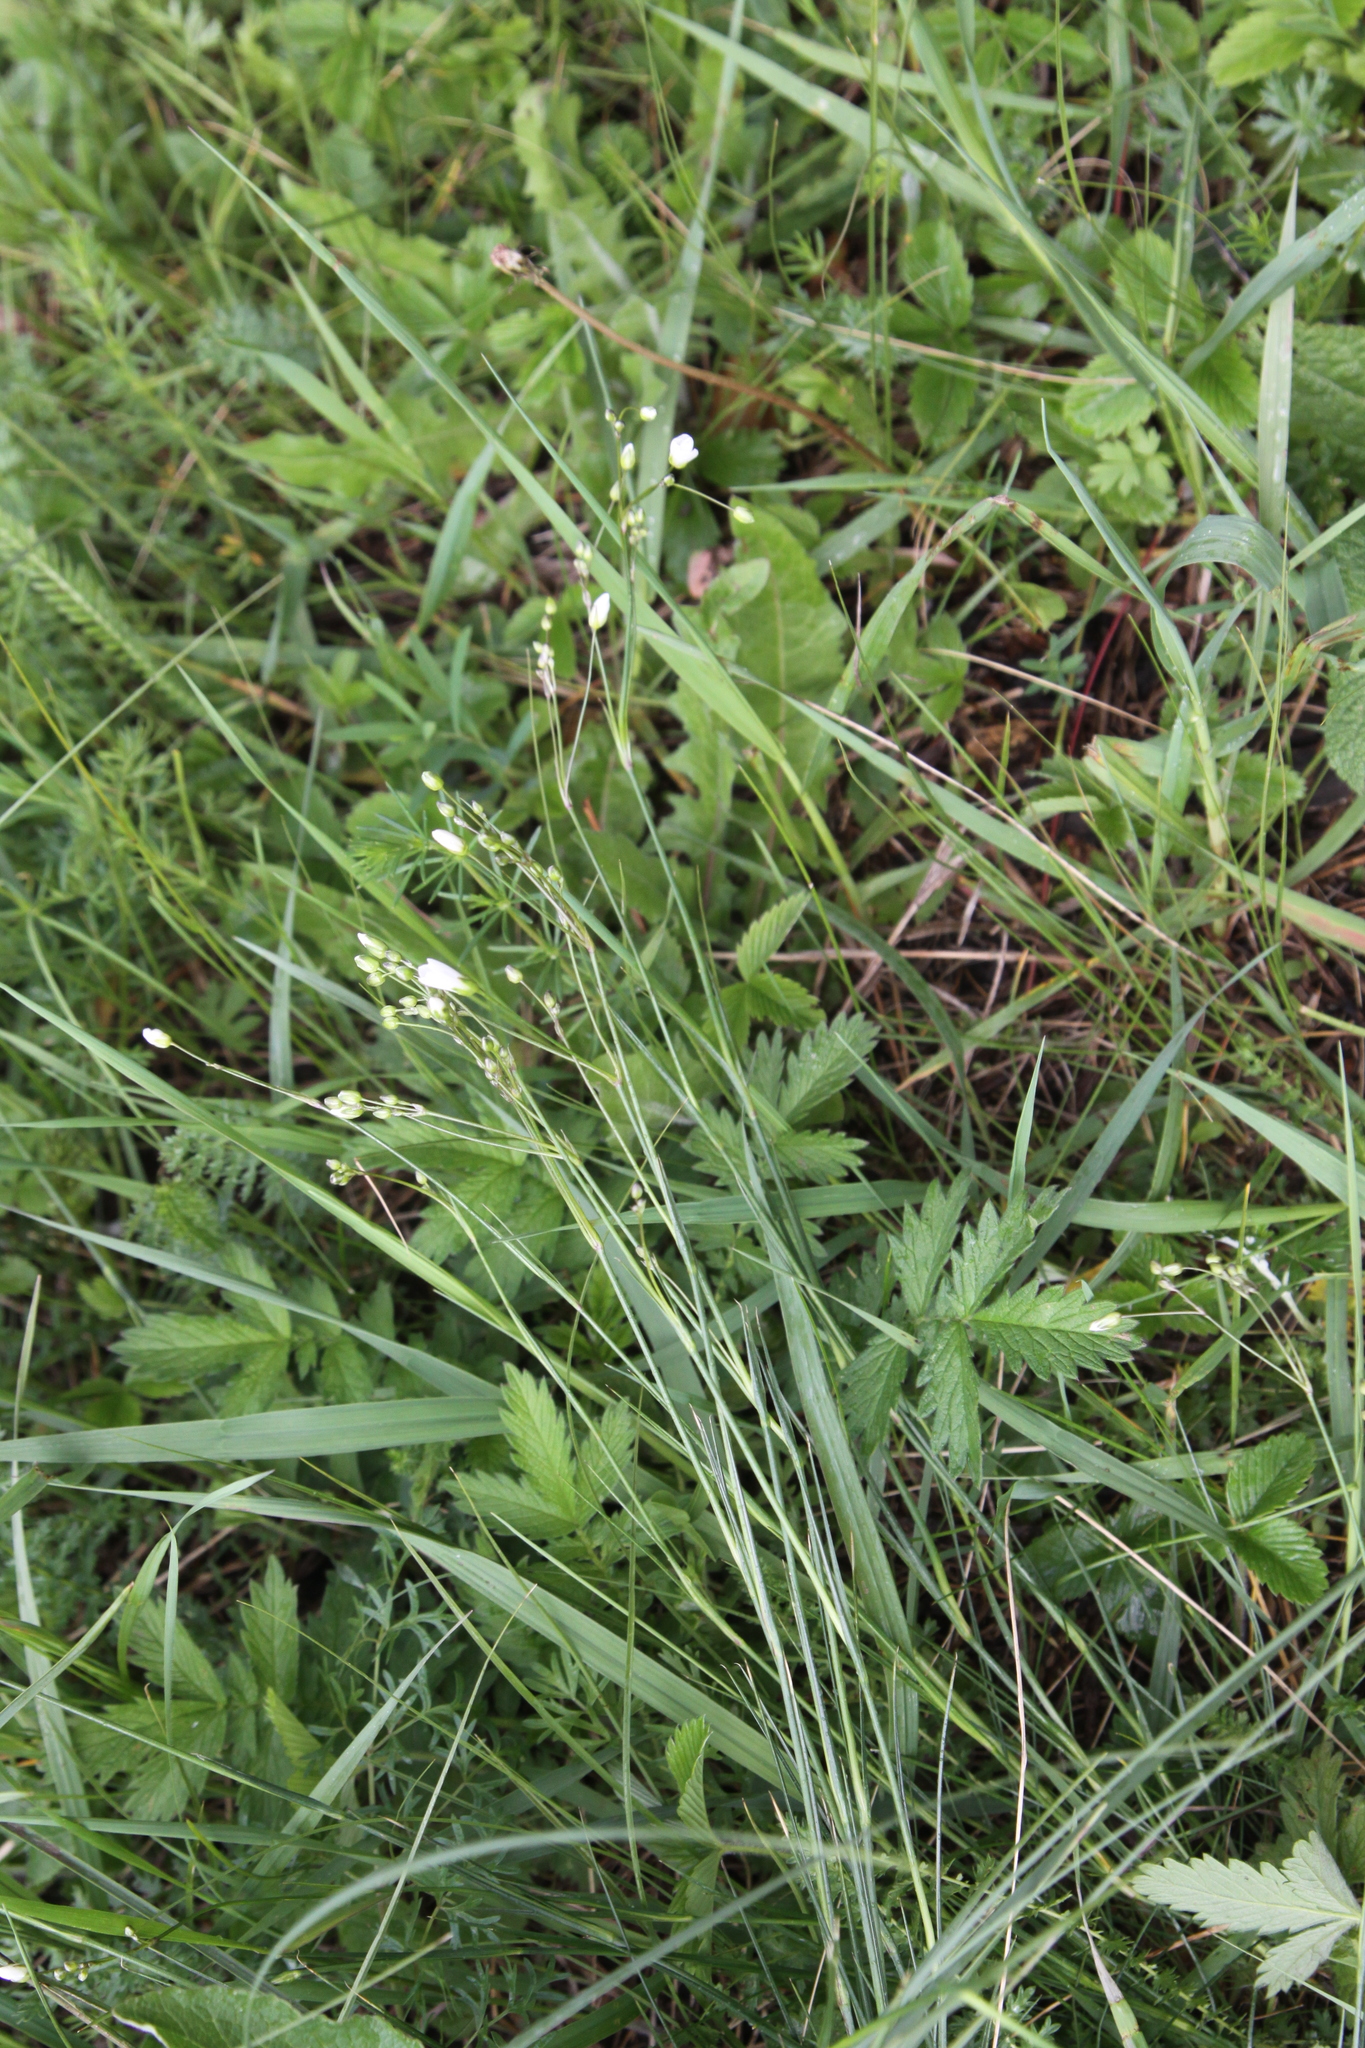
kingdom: Plantae
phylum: Tracheophyta
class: Magnoliopsida
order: Caryophyllales
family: Caryophyllaceae
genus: Eremogone
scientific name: Eremogone saxatilis
